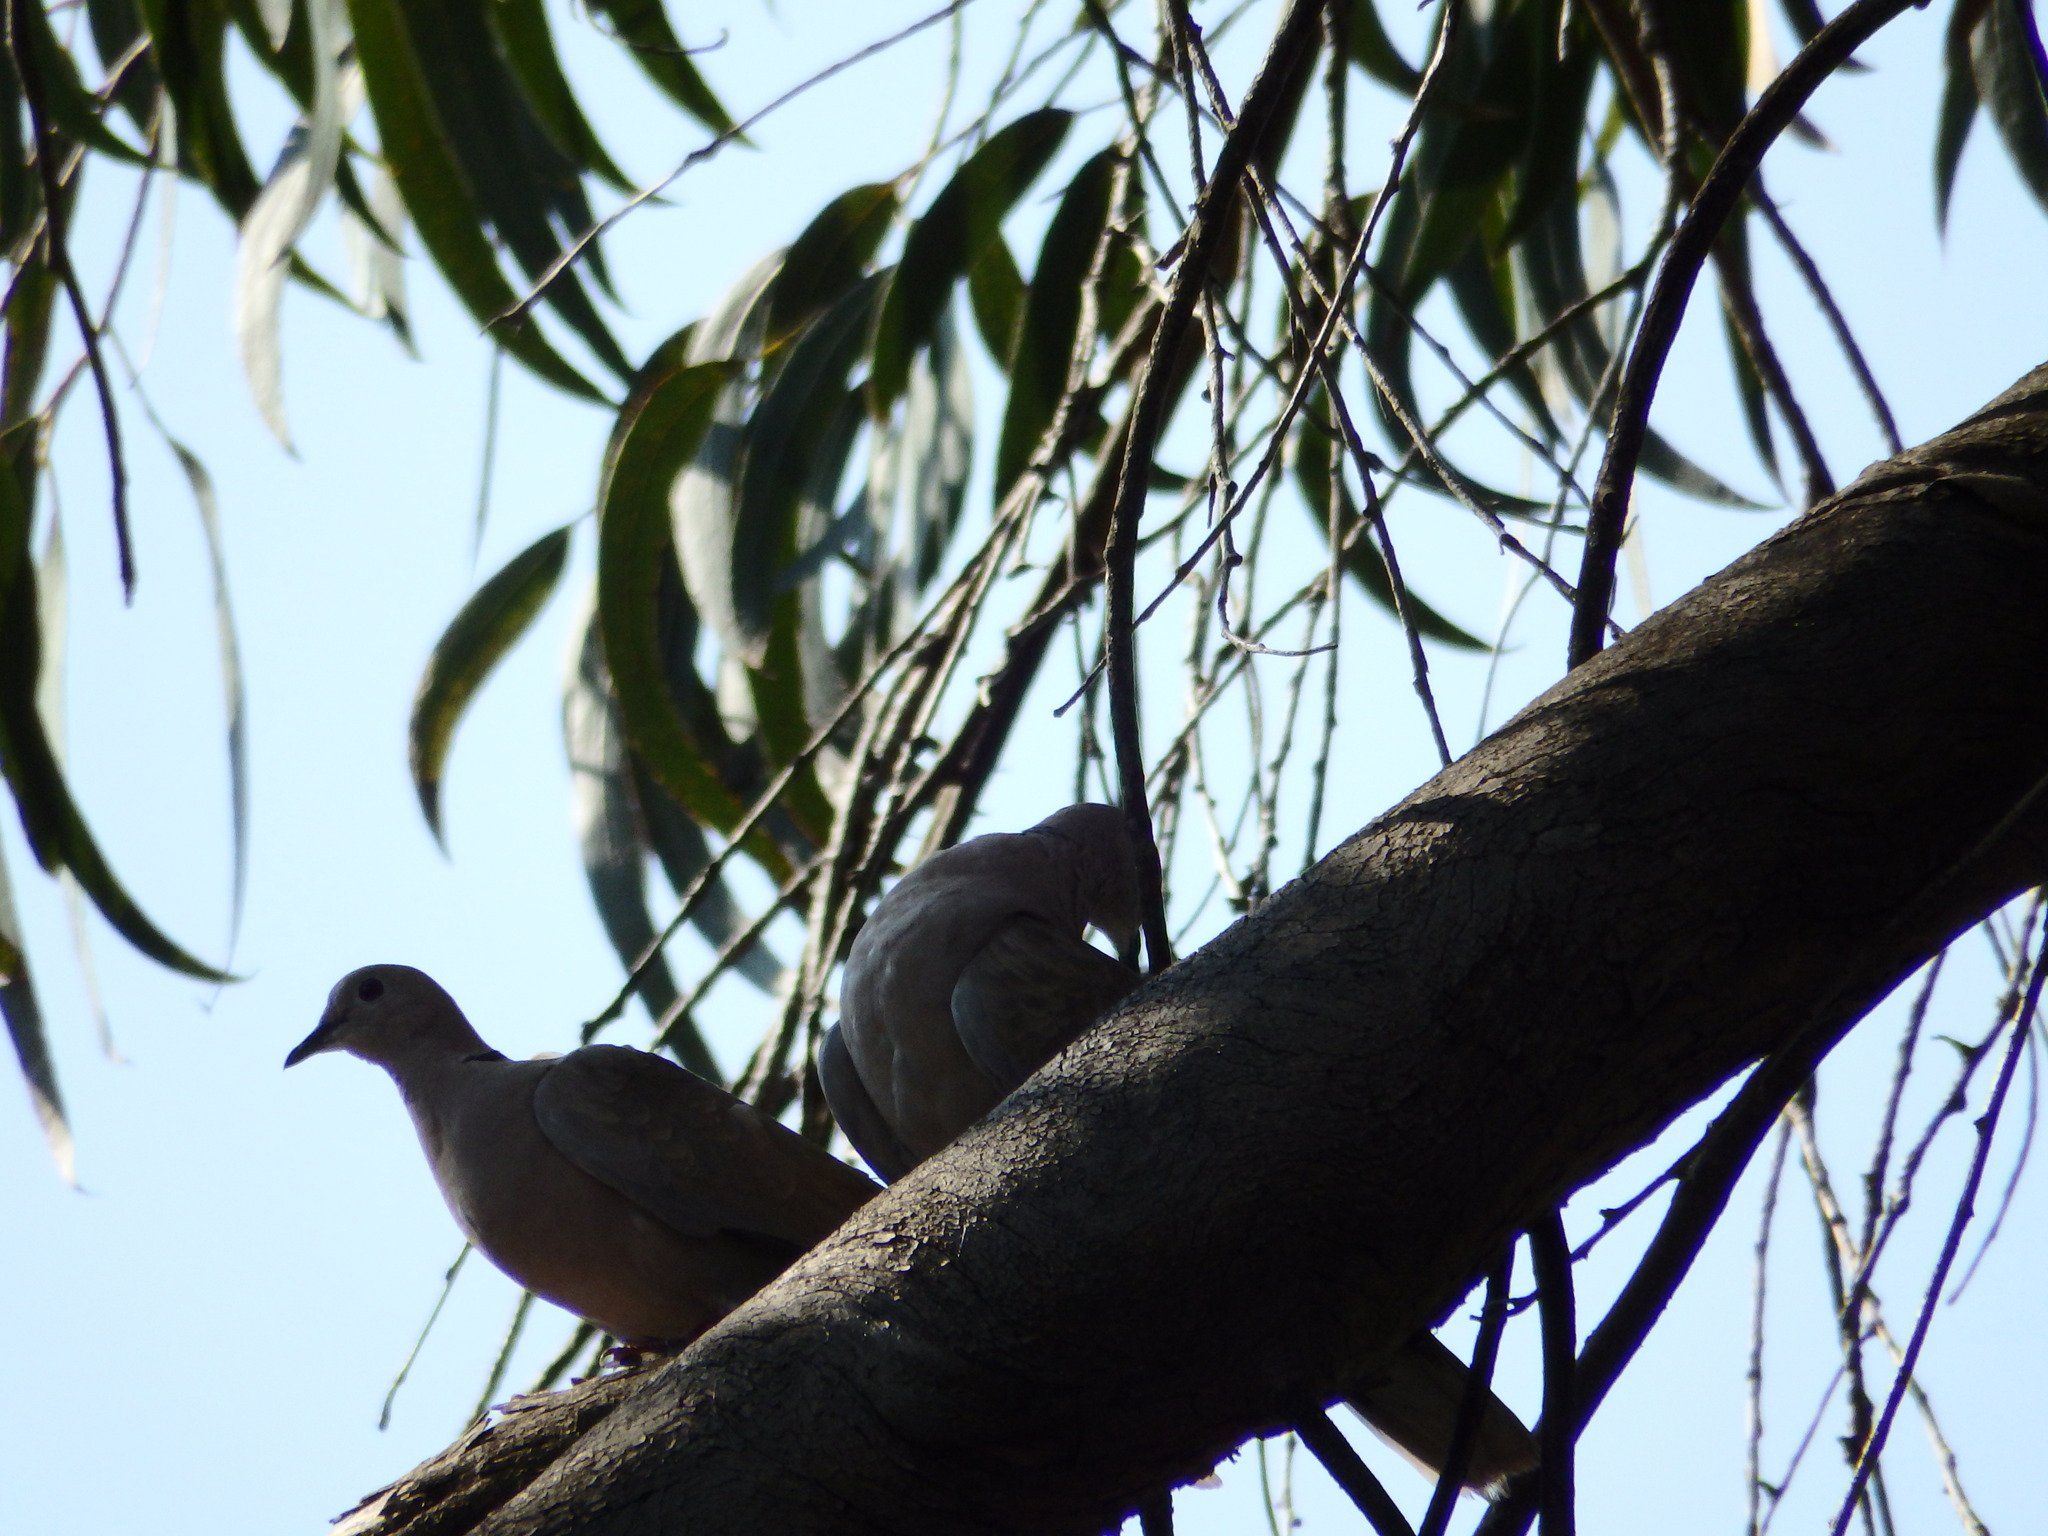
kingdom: Animalia
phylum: Chordata
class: Aves
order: Columbiformes
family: Columbidae
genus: Streptopelia
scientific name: Streptopelia decaocto
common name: Eurasian collared dove
